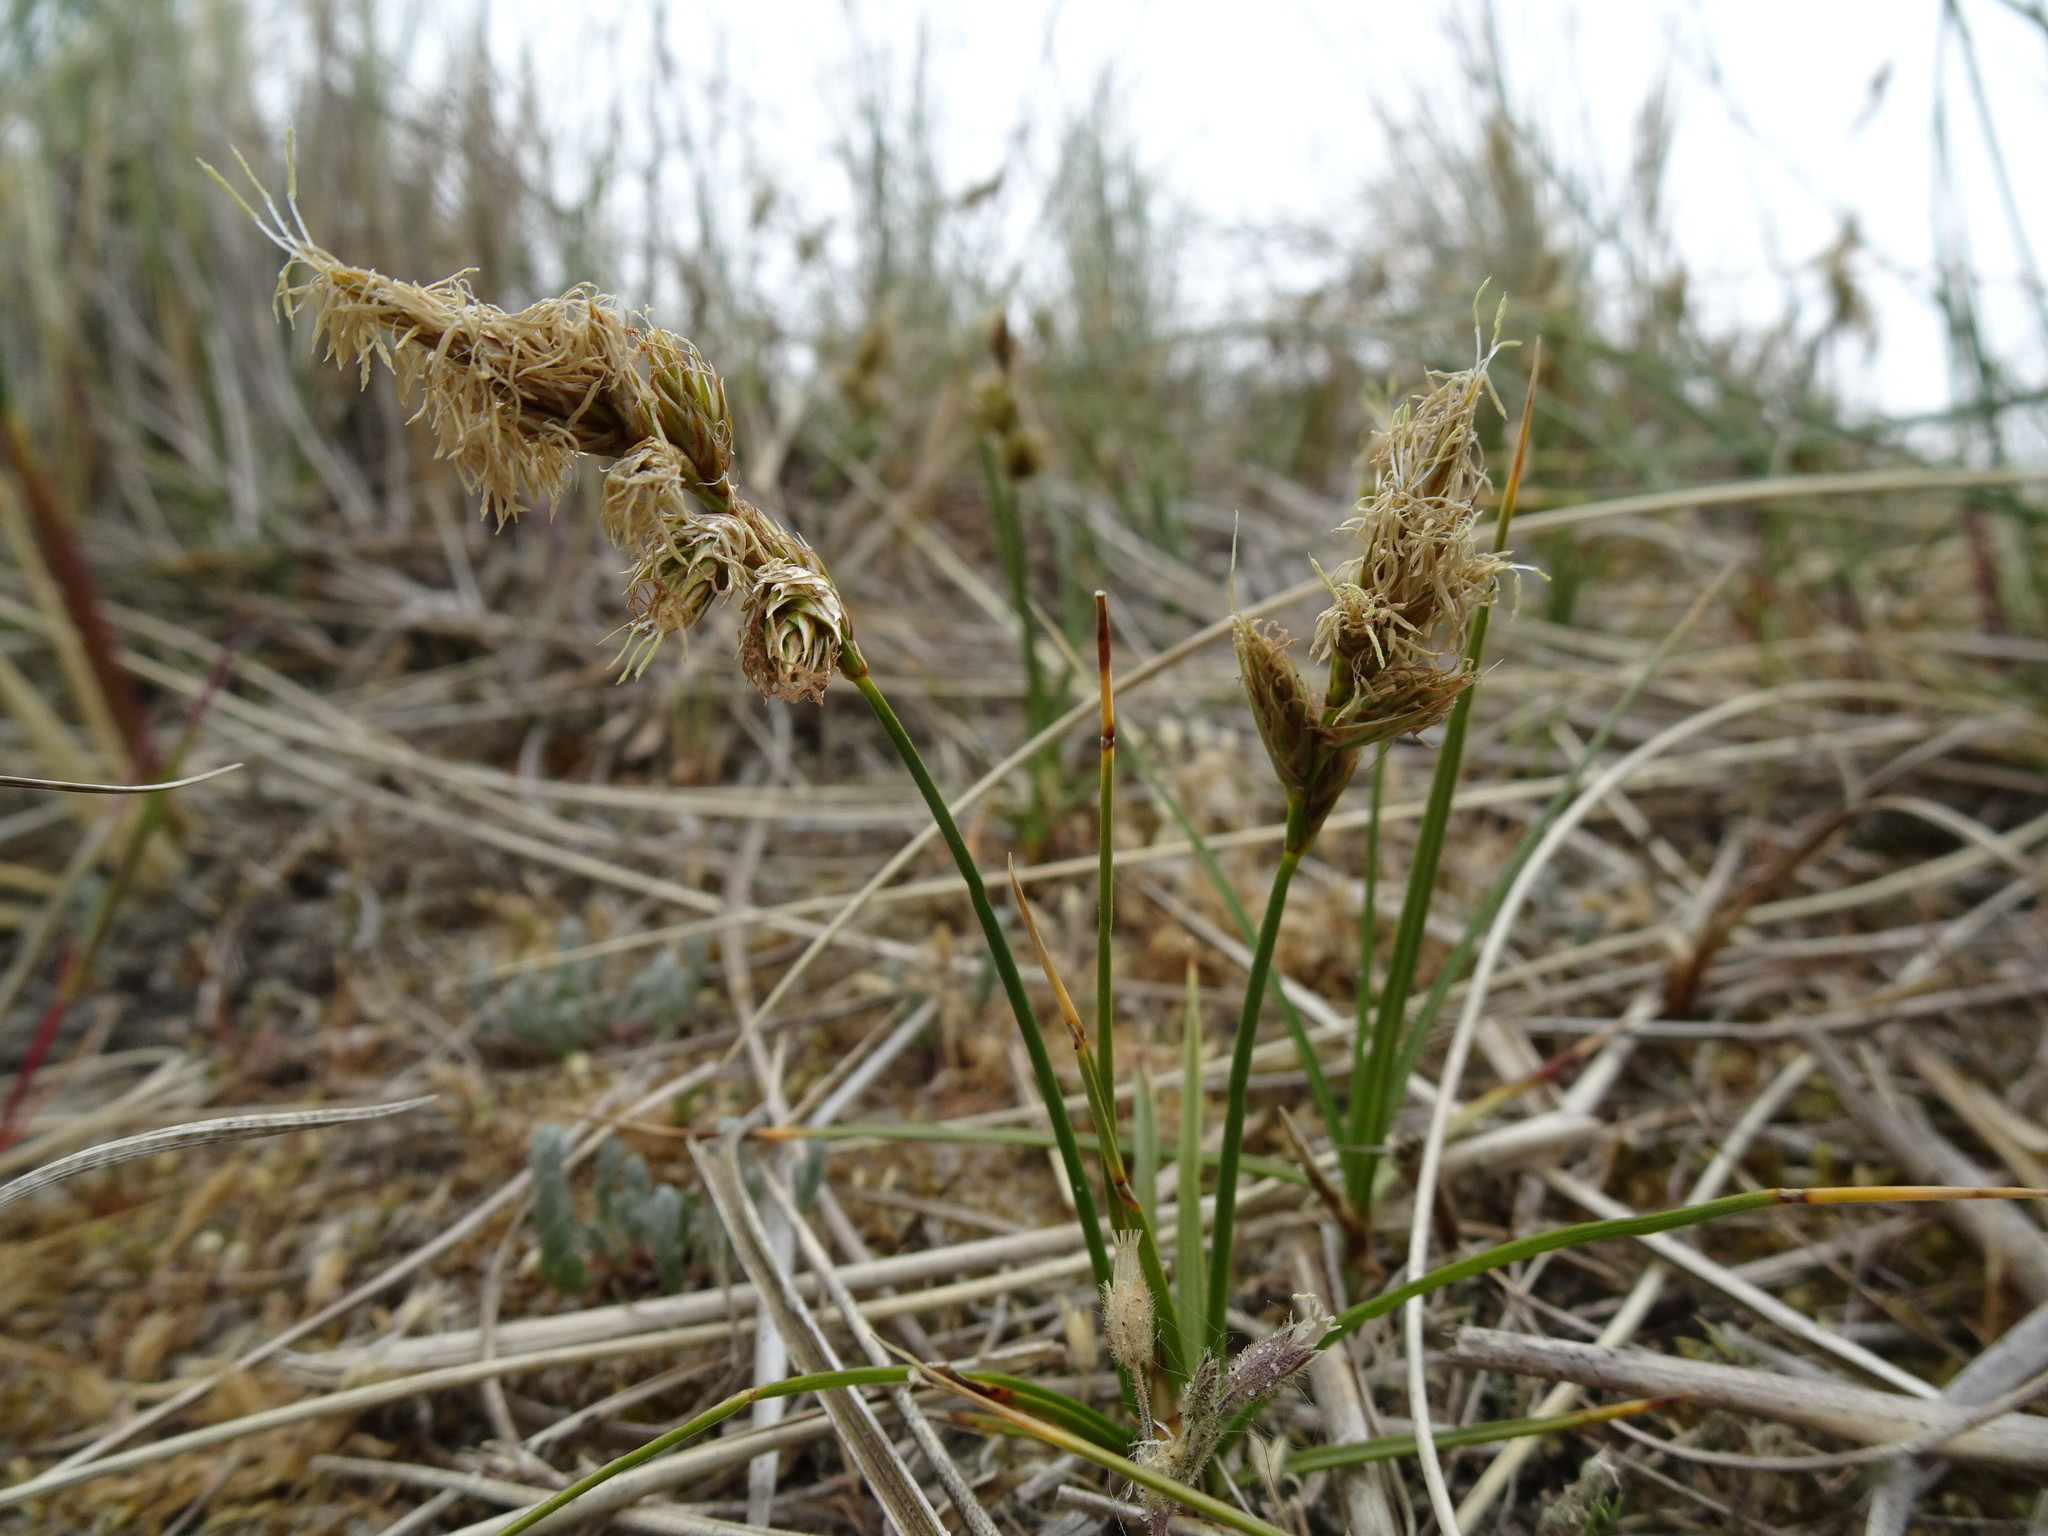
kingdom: Plantae
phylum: Tracheophyta
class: Liliopsida
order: Poales
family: Cyperaceae
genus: Carex
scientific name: Carex arenaria
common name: Sand sedge
